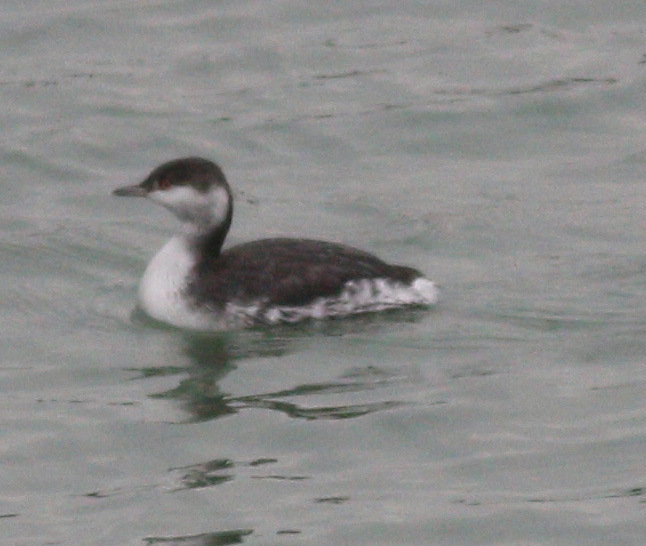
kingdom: Animalia
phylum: Chordata
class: Aves
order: Podicipediformes
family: Podicipedidae
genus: Podiceps
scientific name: Podiceps auritus
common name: Horned grebe
